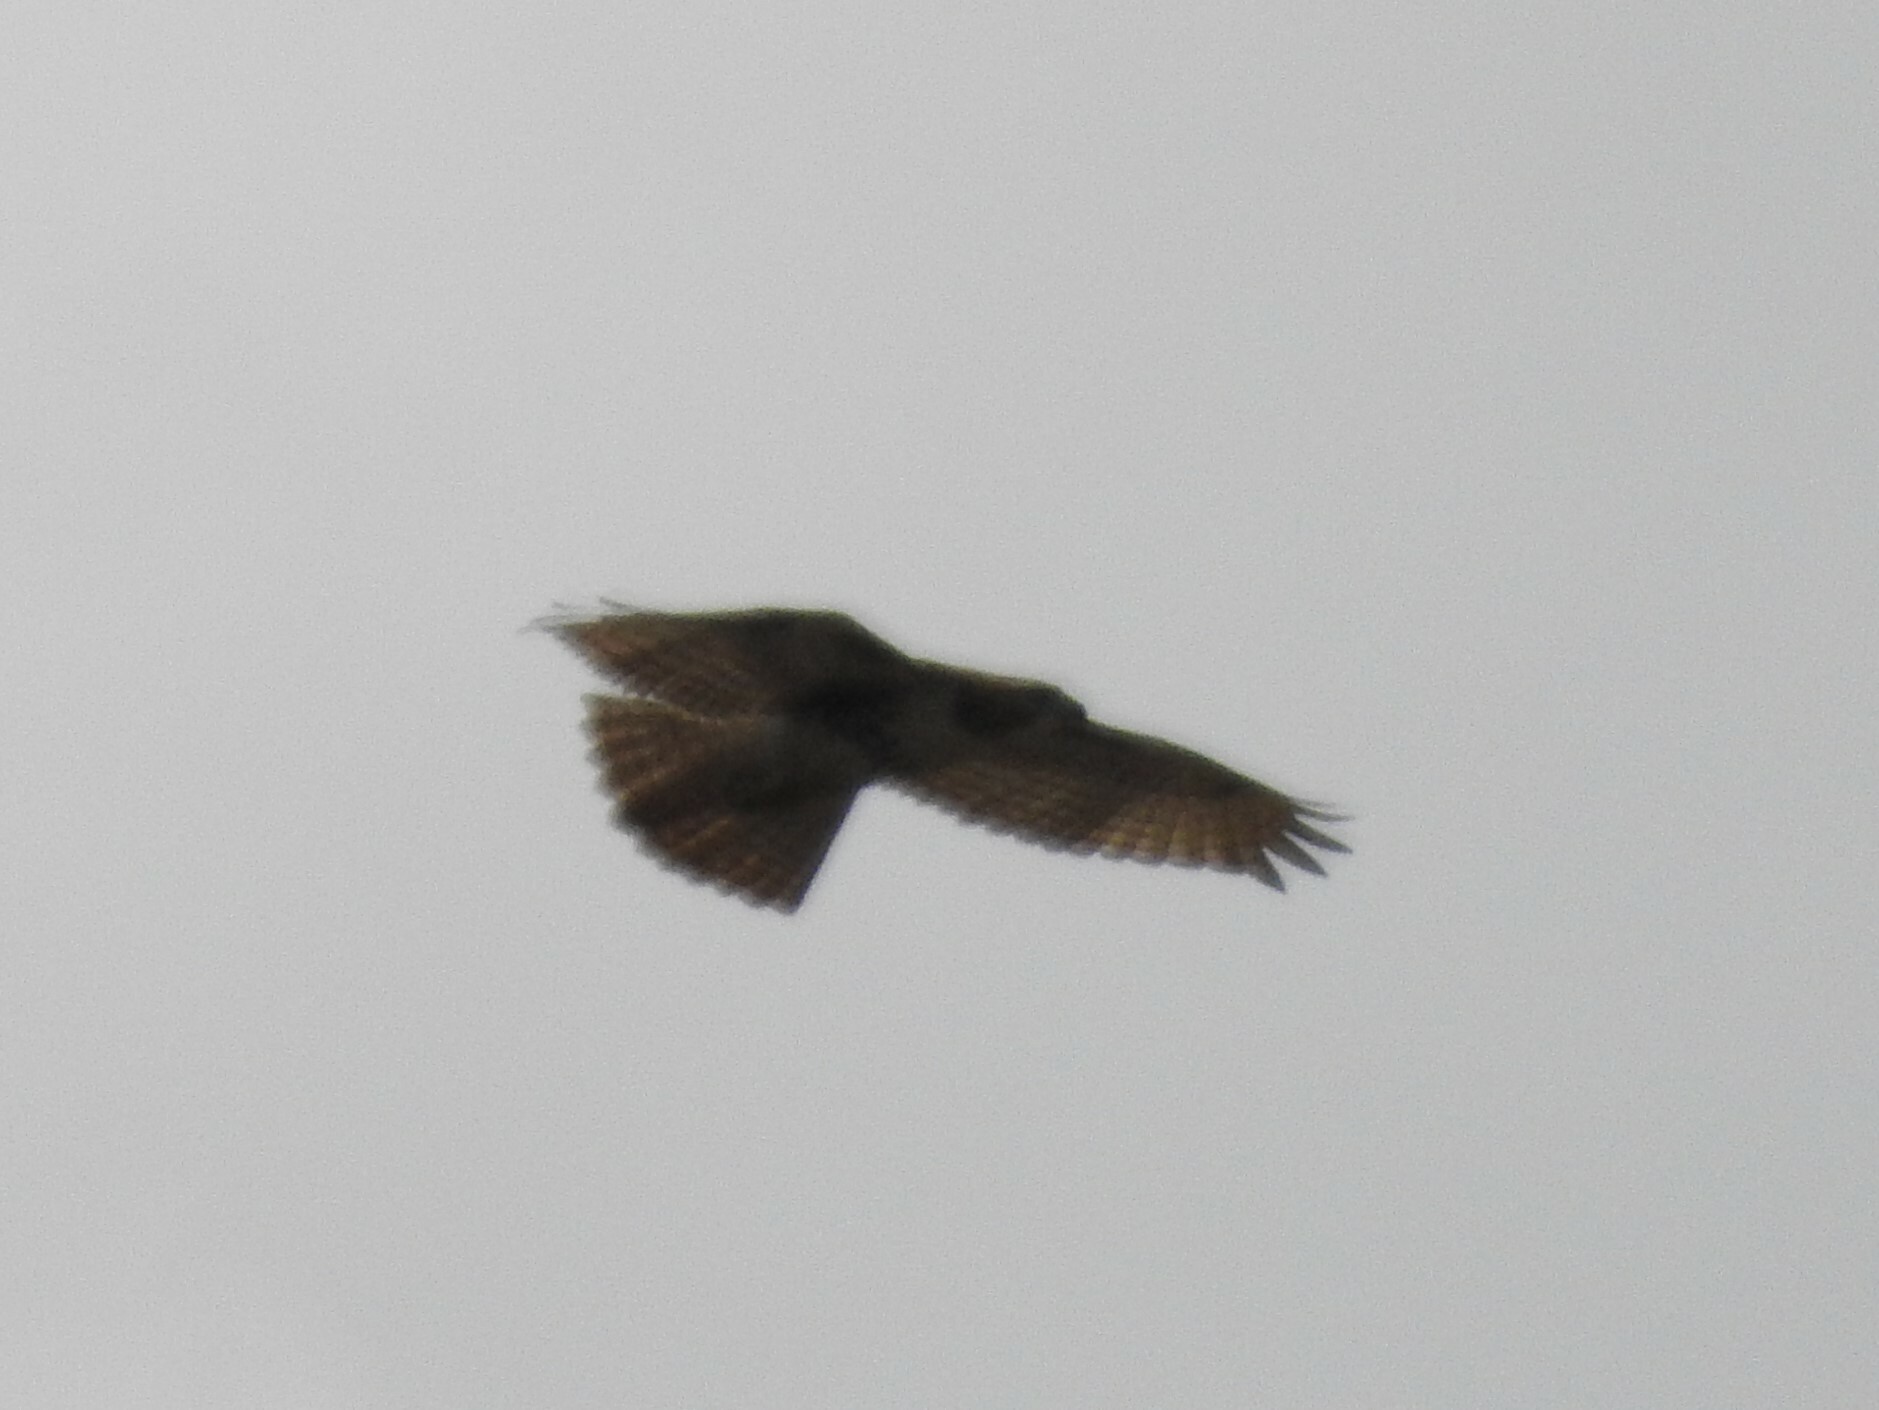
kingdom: Animalia
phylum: Chordata
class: Aves
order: Accipitriformes
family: Accipitridae
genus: Buteo
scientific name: Buteo jamaicensis
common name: Red-tailed hawk
